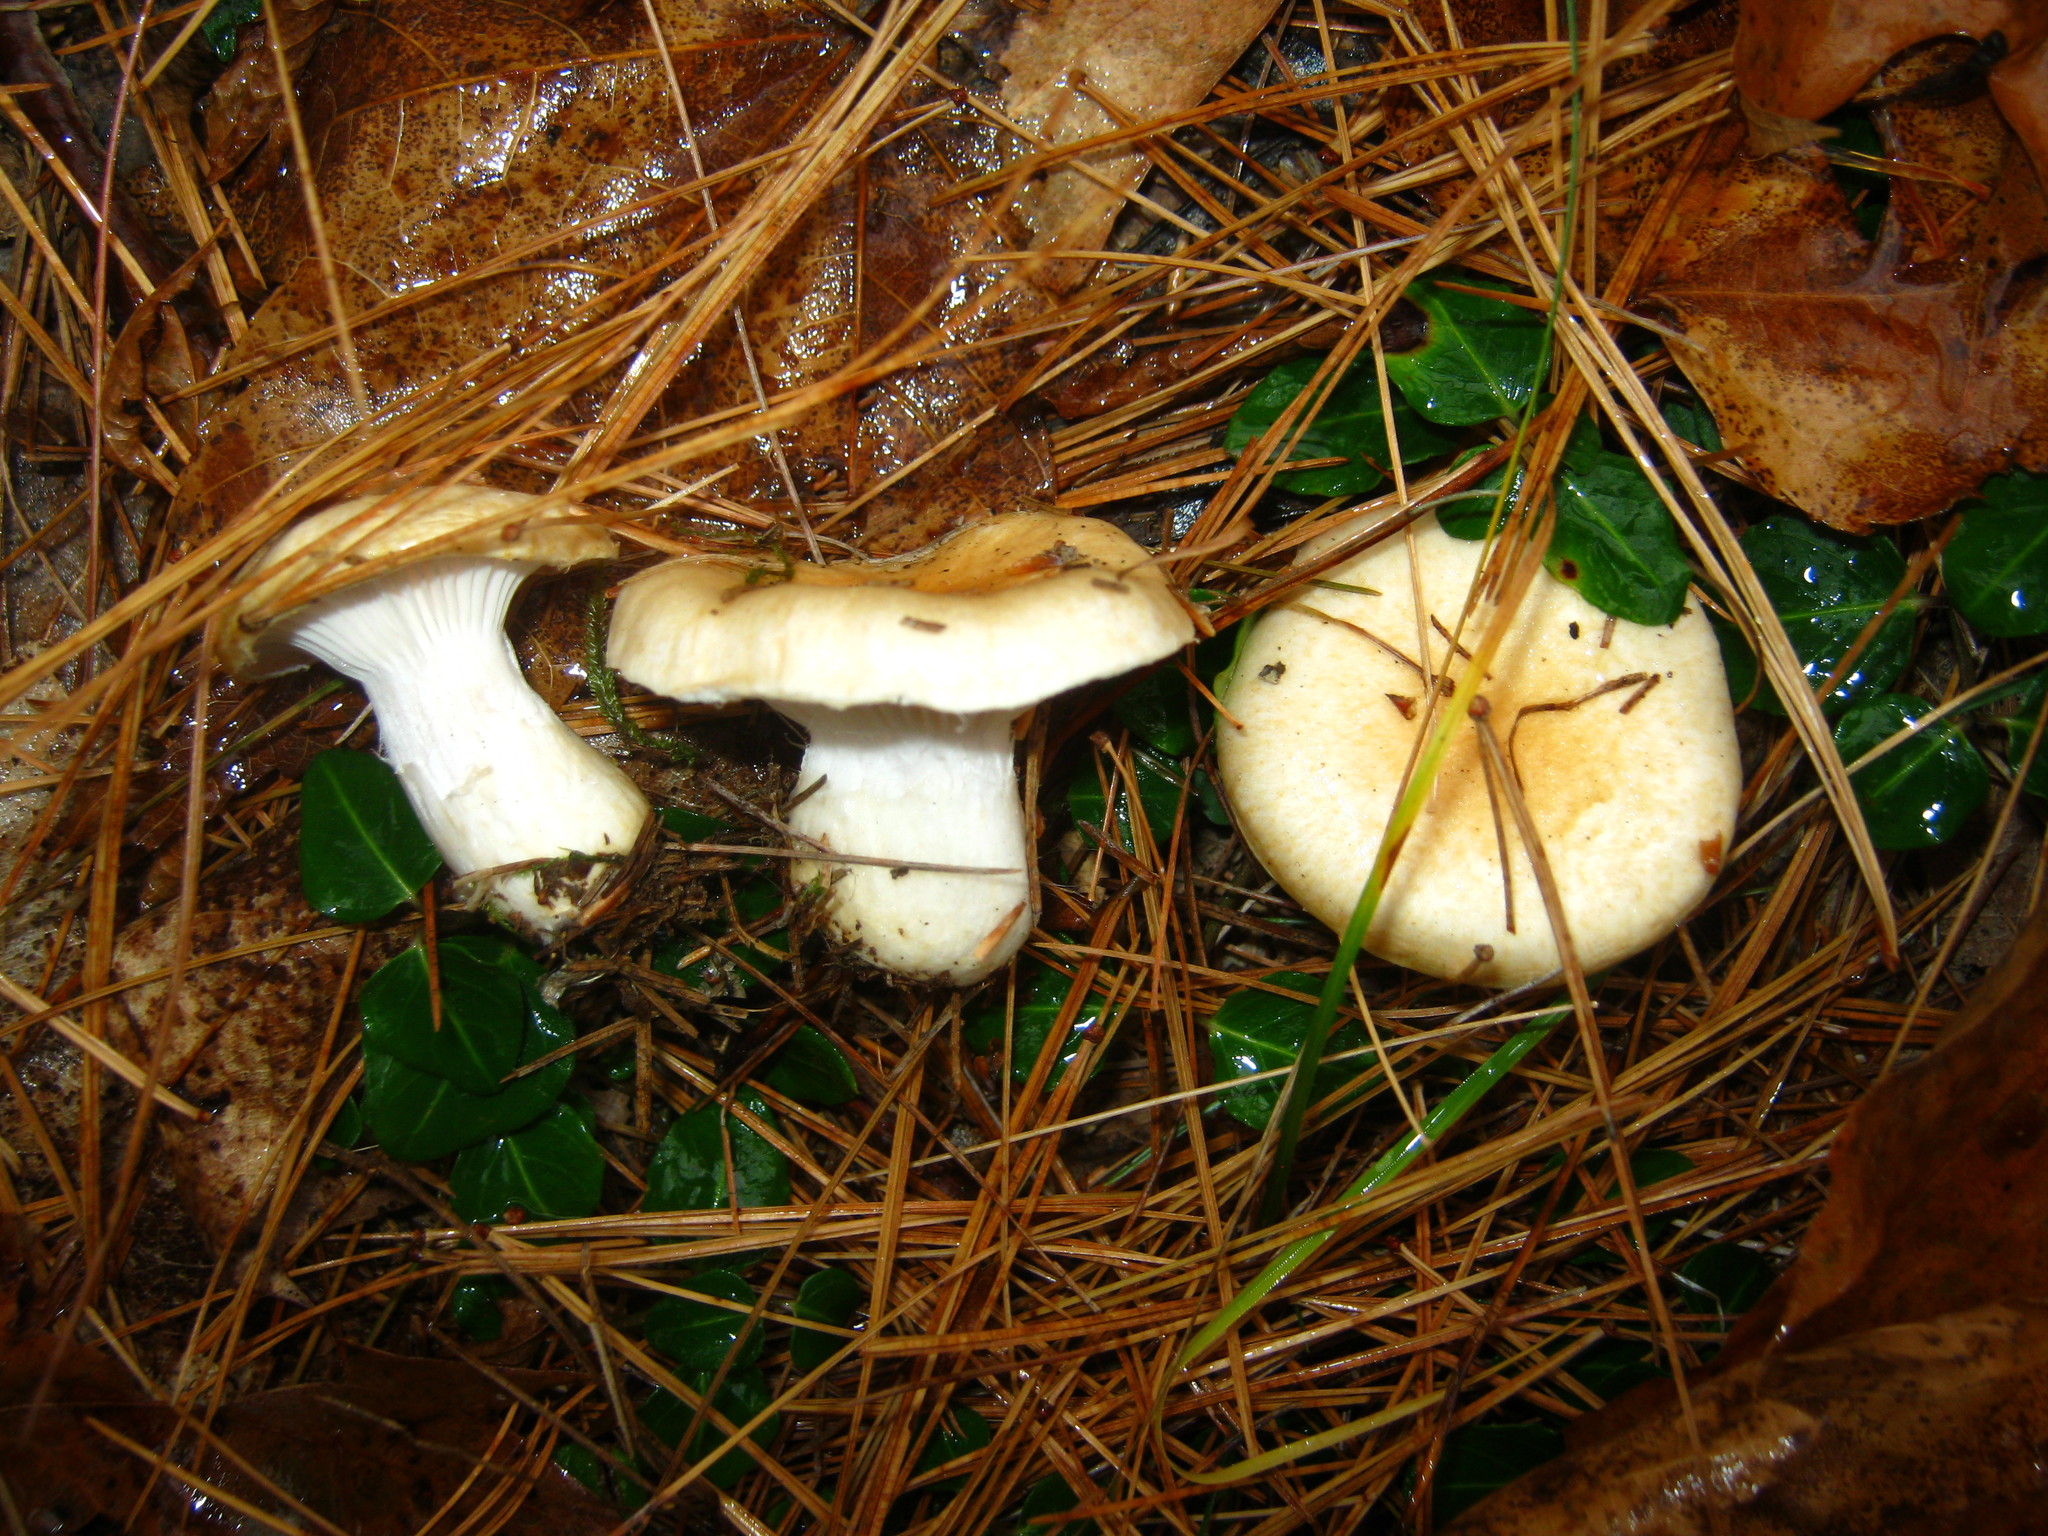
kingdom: Fungi
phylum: Basidiomycota
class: Agaricomycetes
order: Agaricales
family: Hygrophoraceae
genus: Hygrophorus
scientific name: Hygrophorus ligatus
